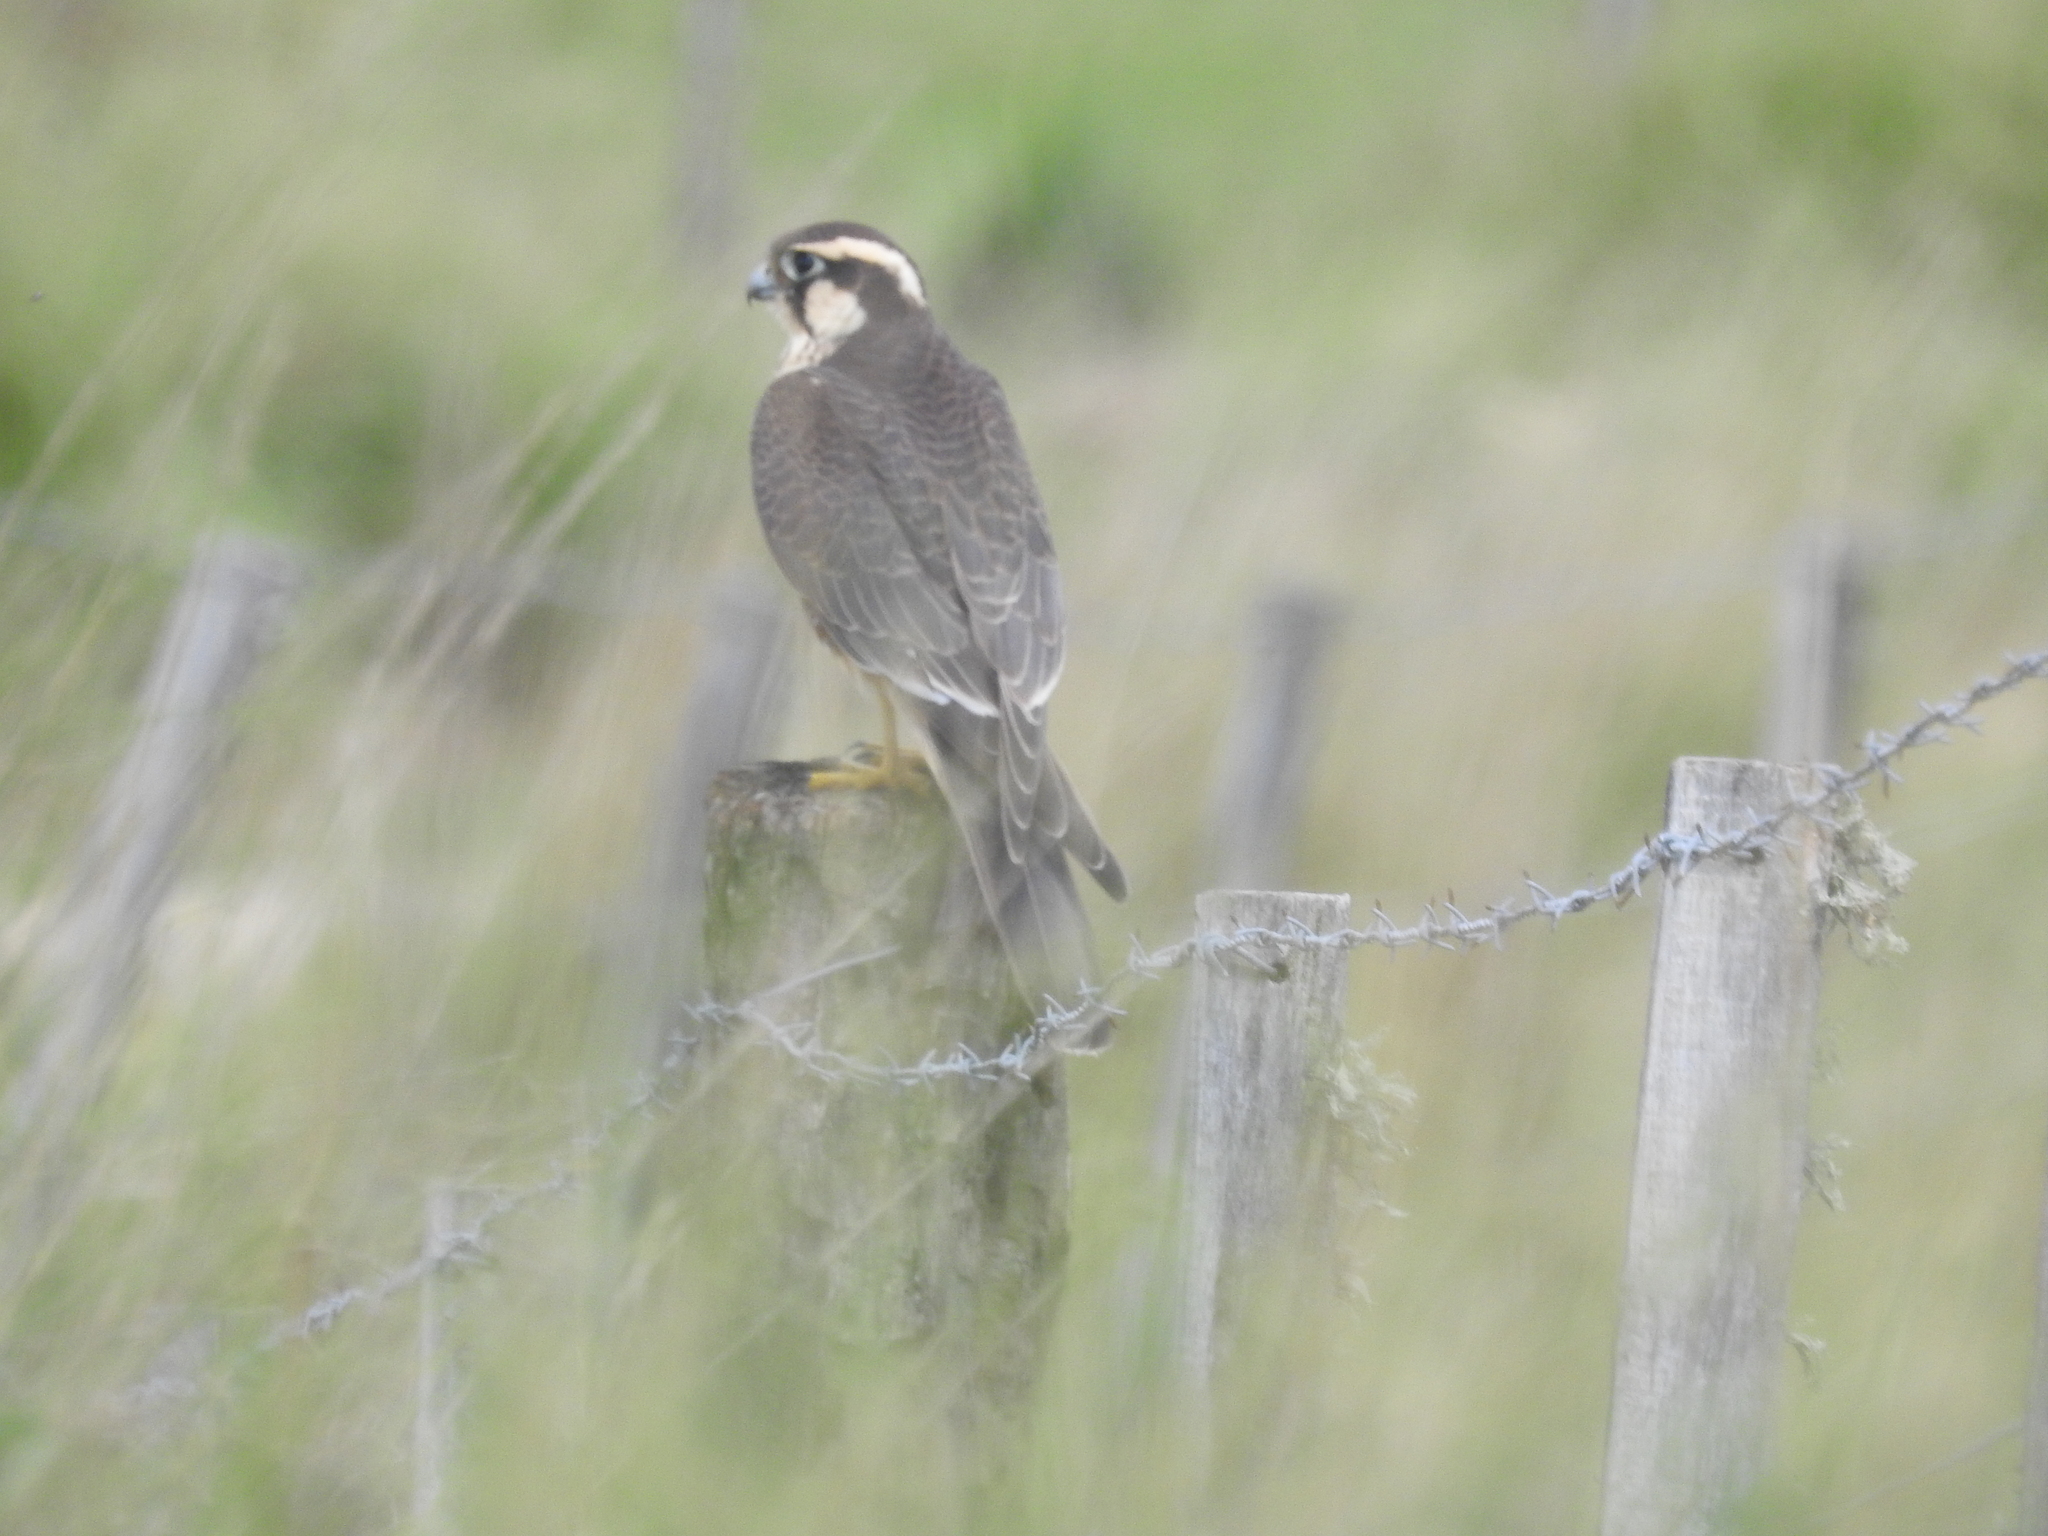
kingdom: Animalia
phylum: Chordata
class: Aves
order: Falconiformes
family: Falconidae
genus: Falco
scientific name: Falco femoralis
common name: Aplomado falcon
